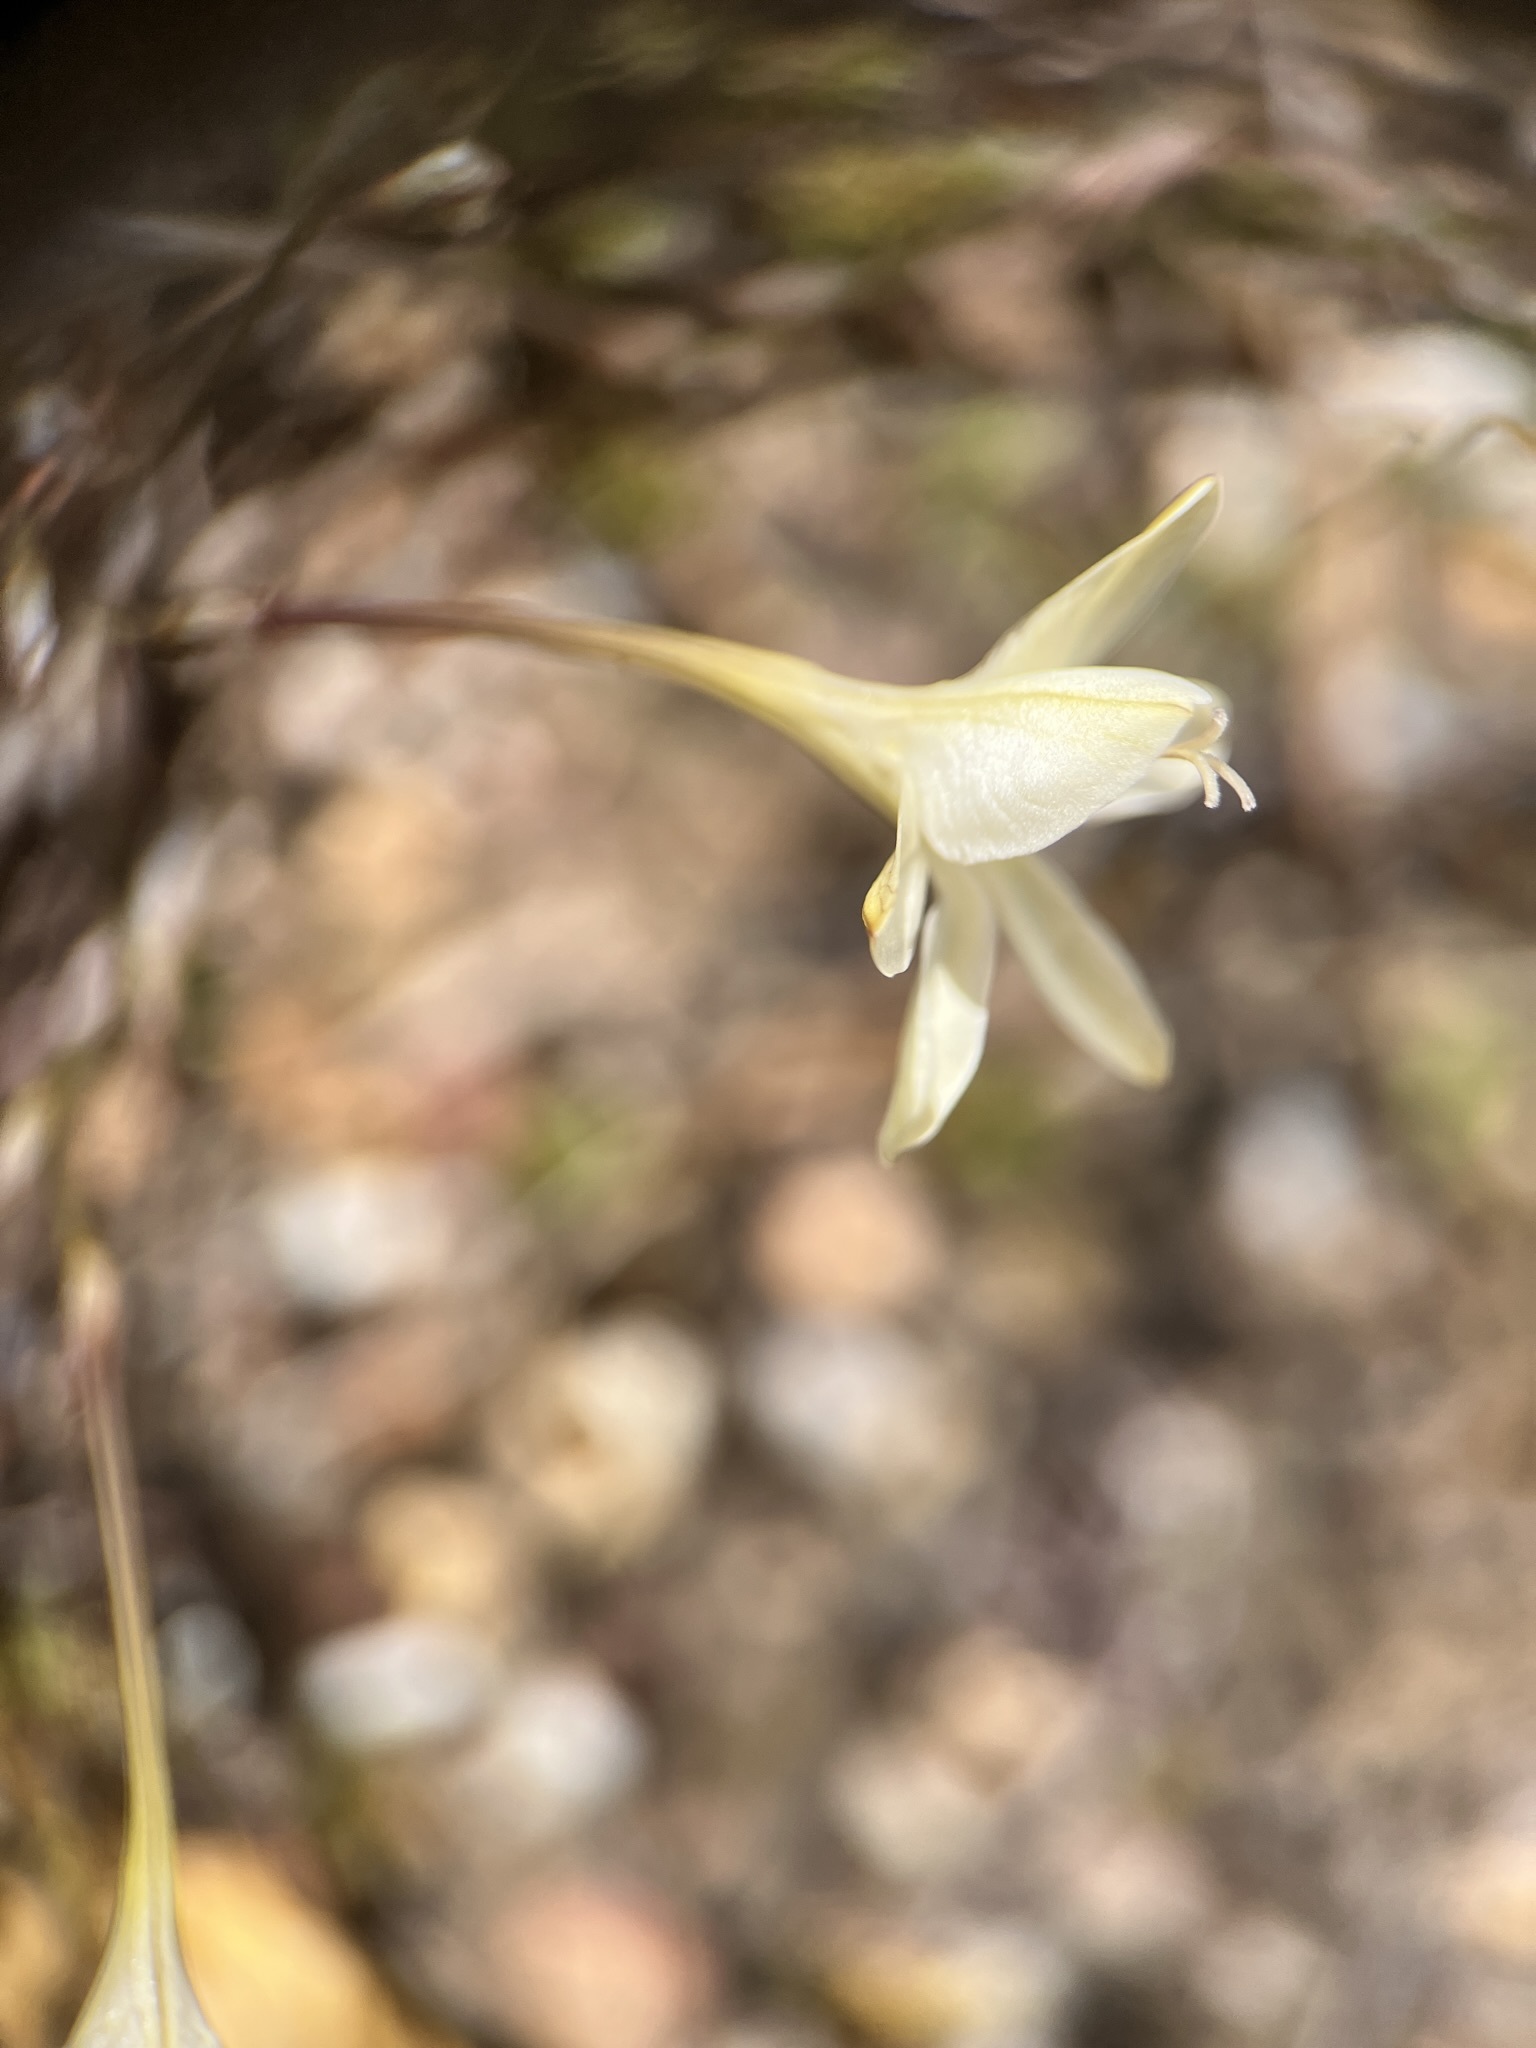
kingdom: Plantae
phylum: Tracheophyta
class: Liliopsida
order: Asparagales
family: Iridaceae
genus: Tritonia
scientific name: Tritonia pallida
